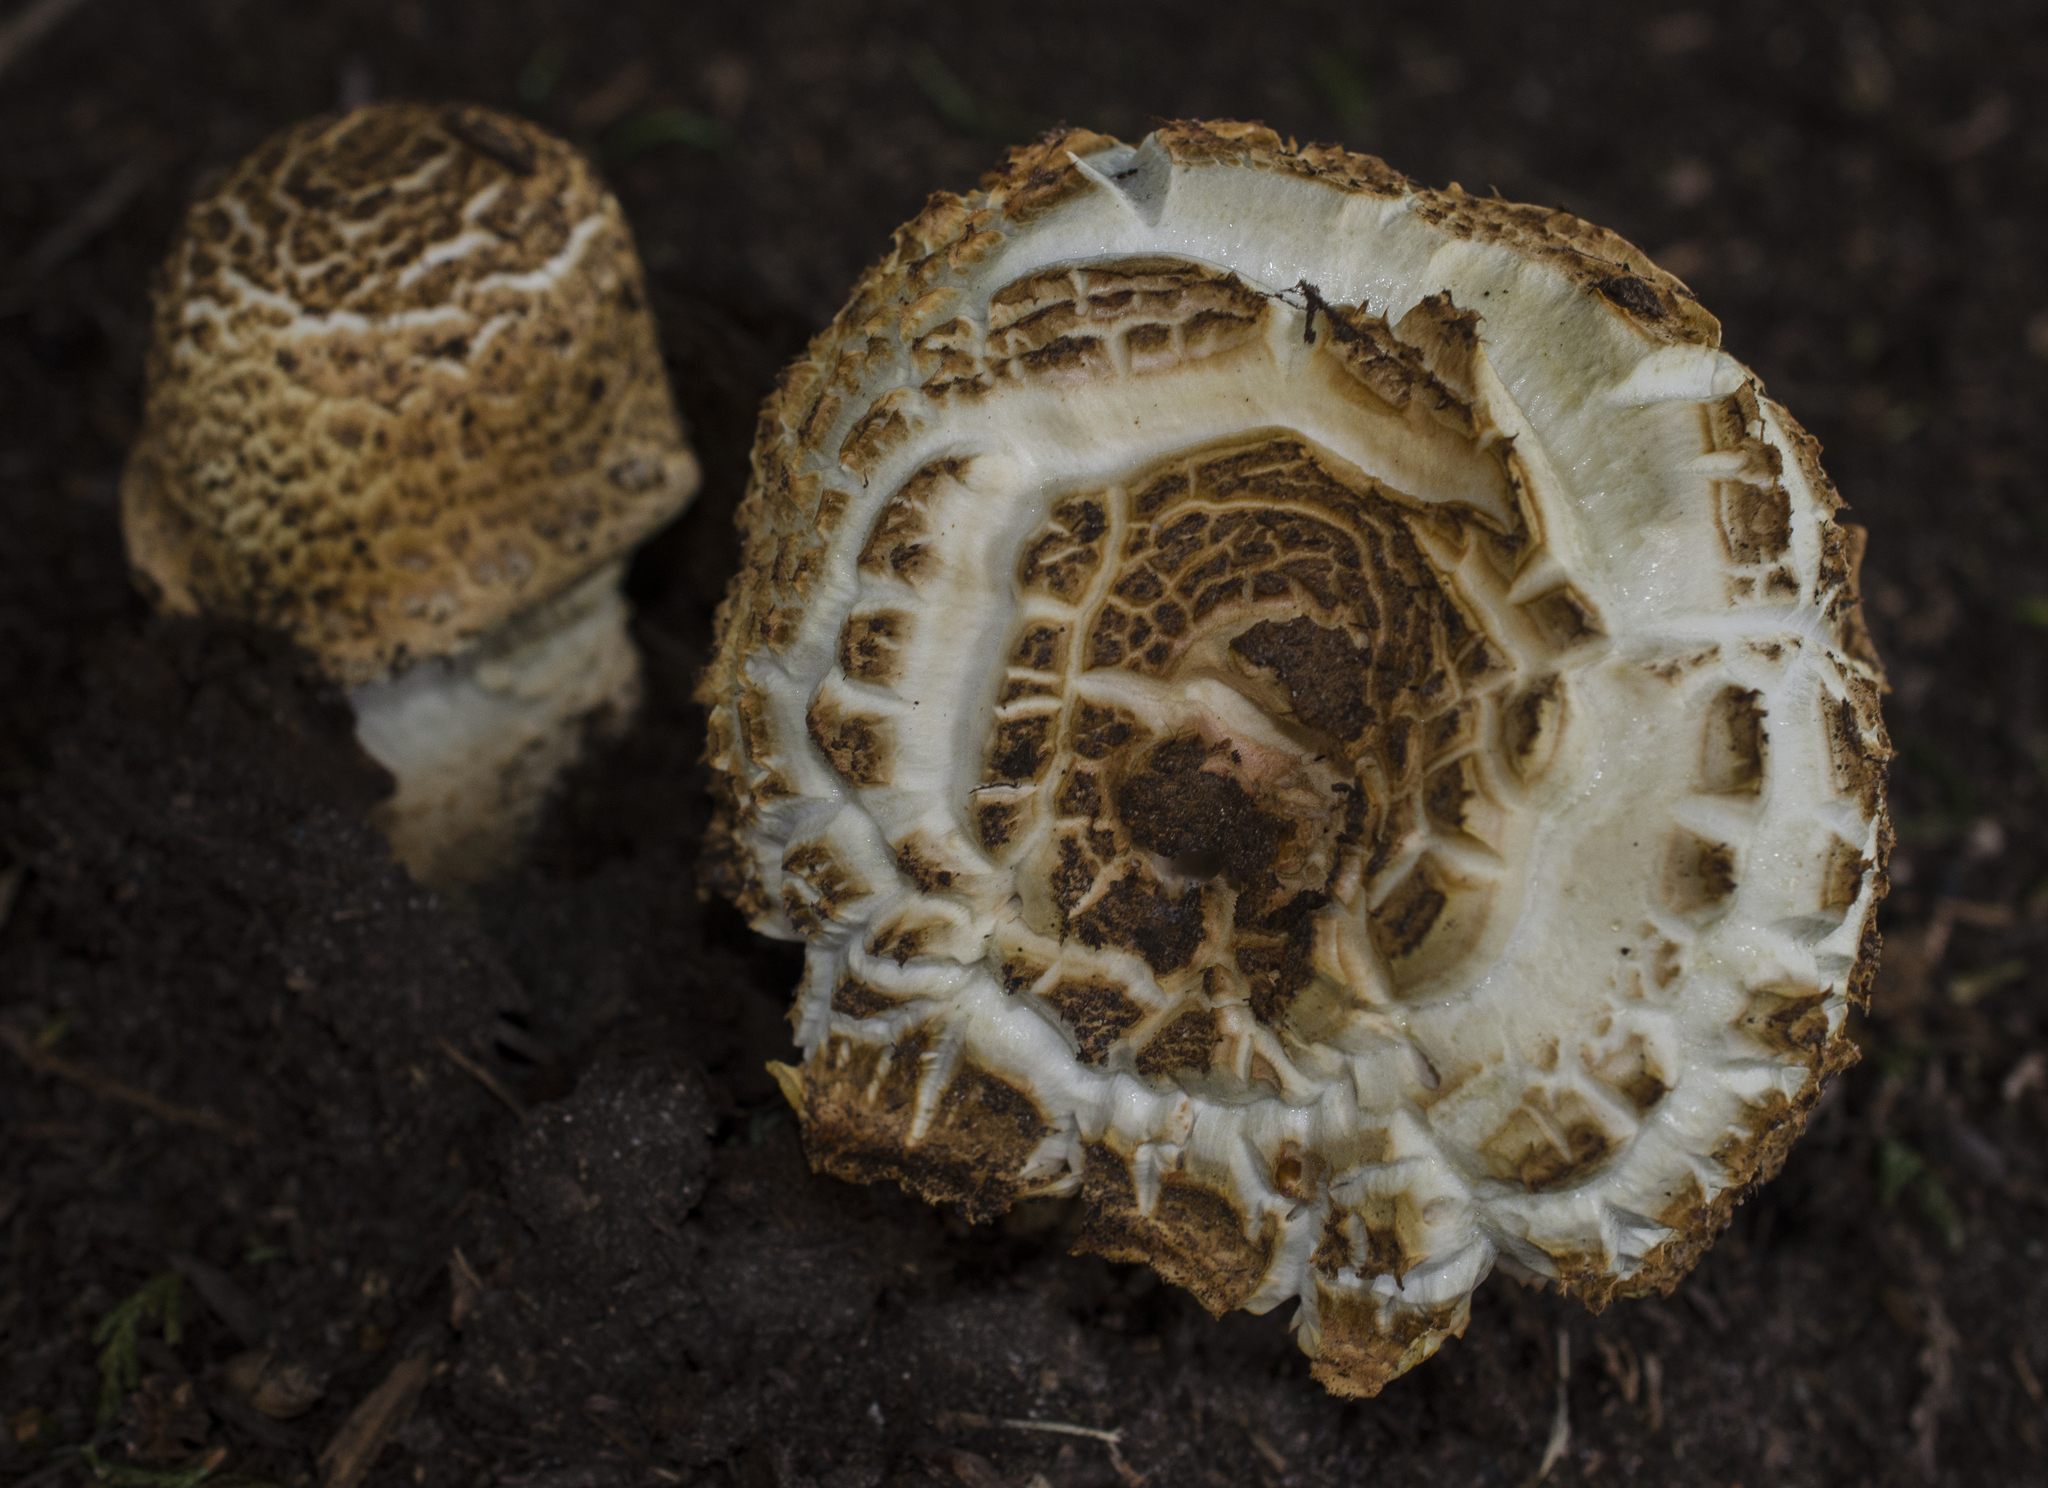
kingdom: Fungi
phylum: Basidiomycota
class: Agaricomycetes
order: Agaricales
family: Agaricaceae
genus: Agaricus
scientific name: Agaricus augustus
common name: Prince
